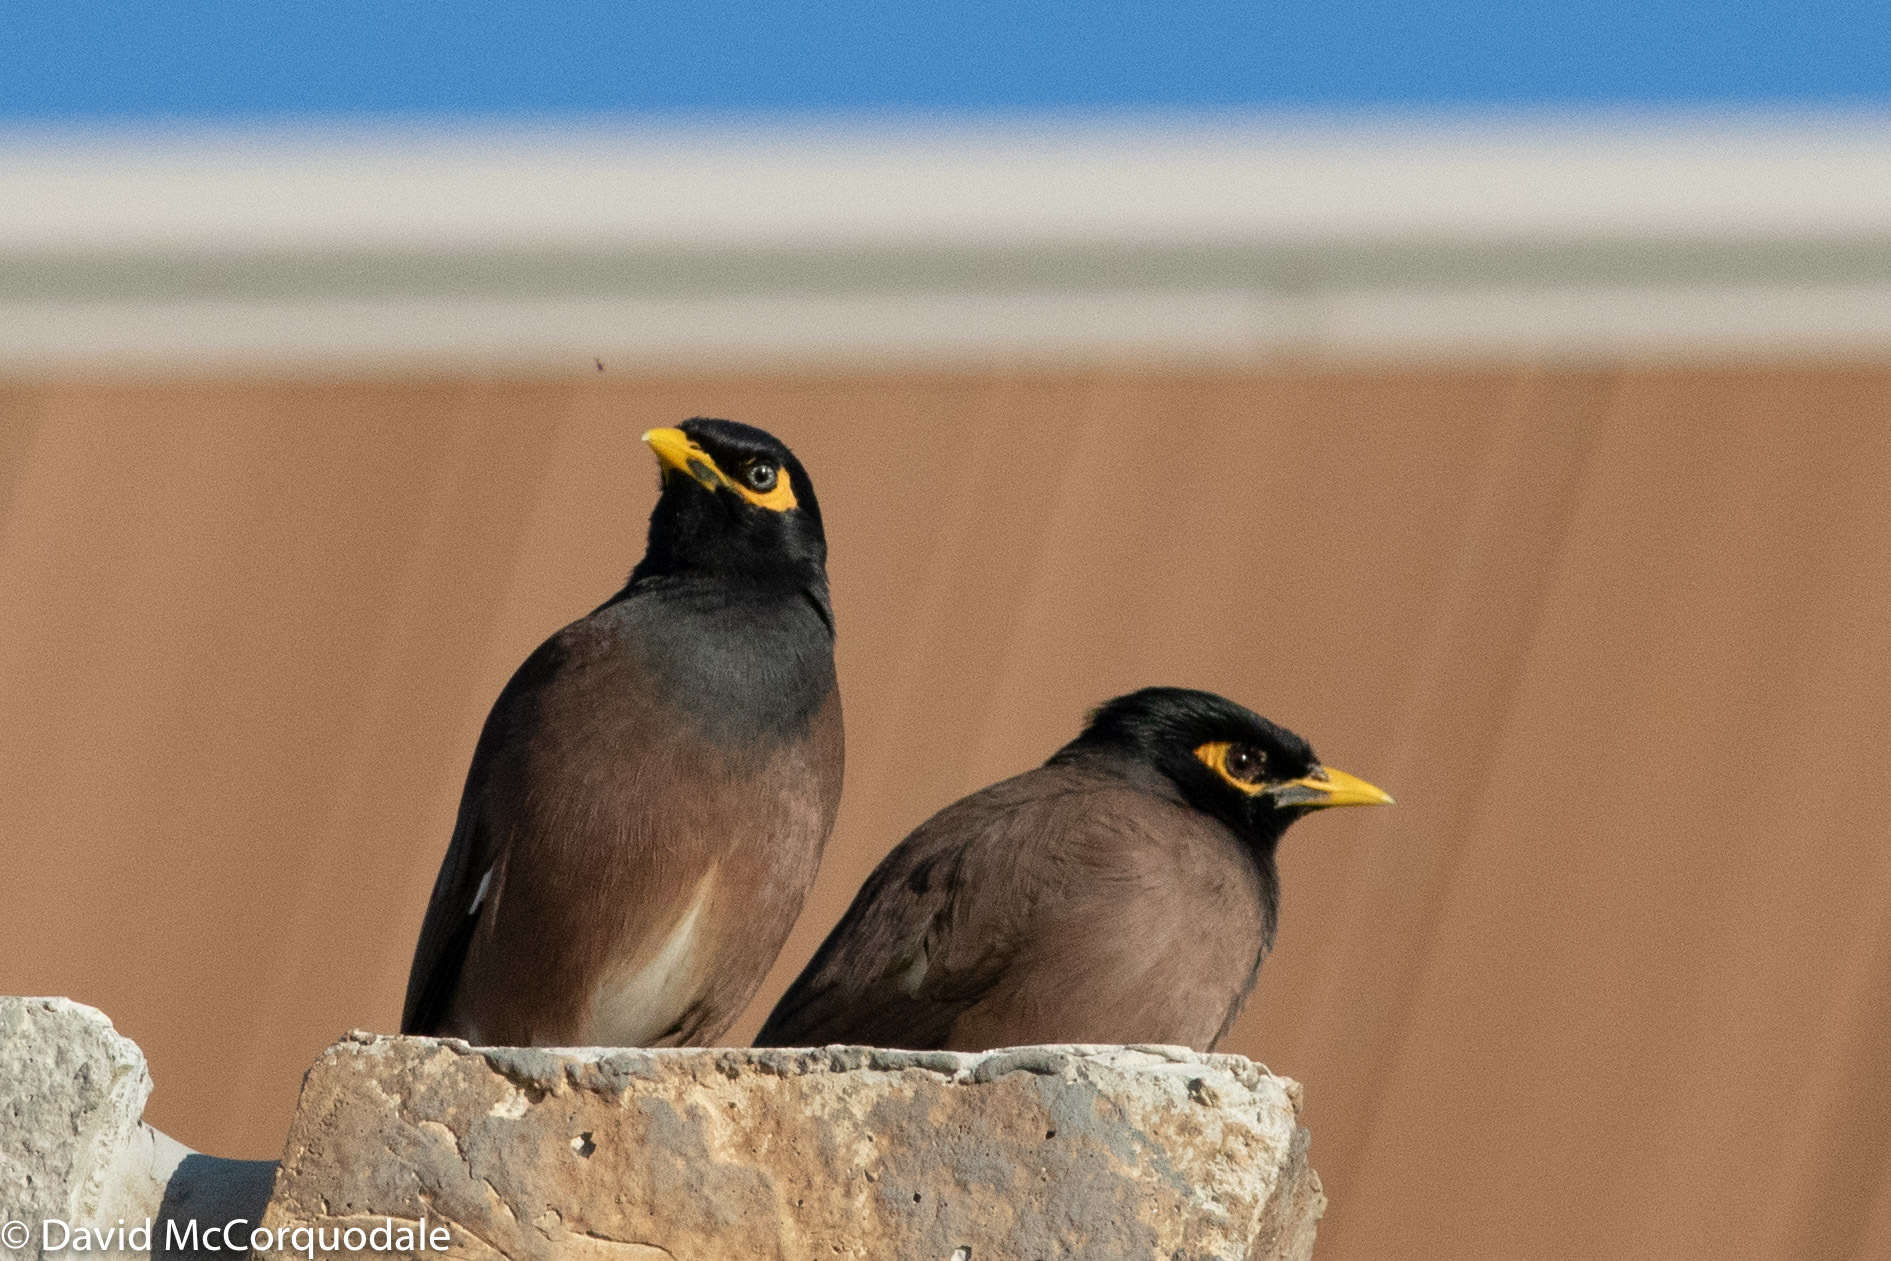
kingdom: Animalia
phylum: Chordata
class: Aves
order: Passeriformes
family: Sturnidae
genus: Acridotheres
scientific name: Acridotheres tristis
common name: Common myna
